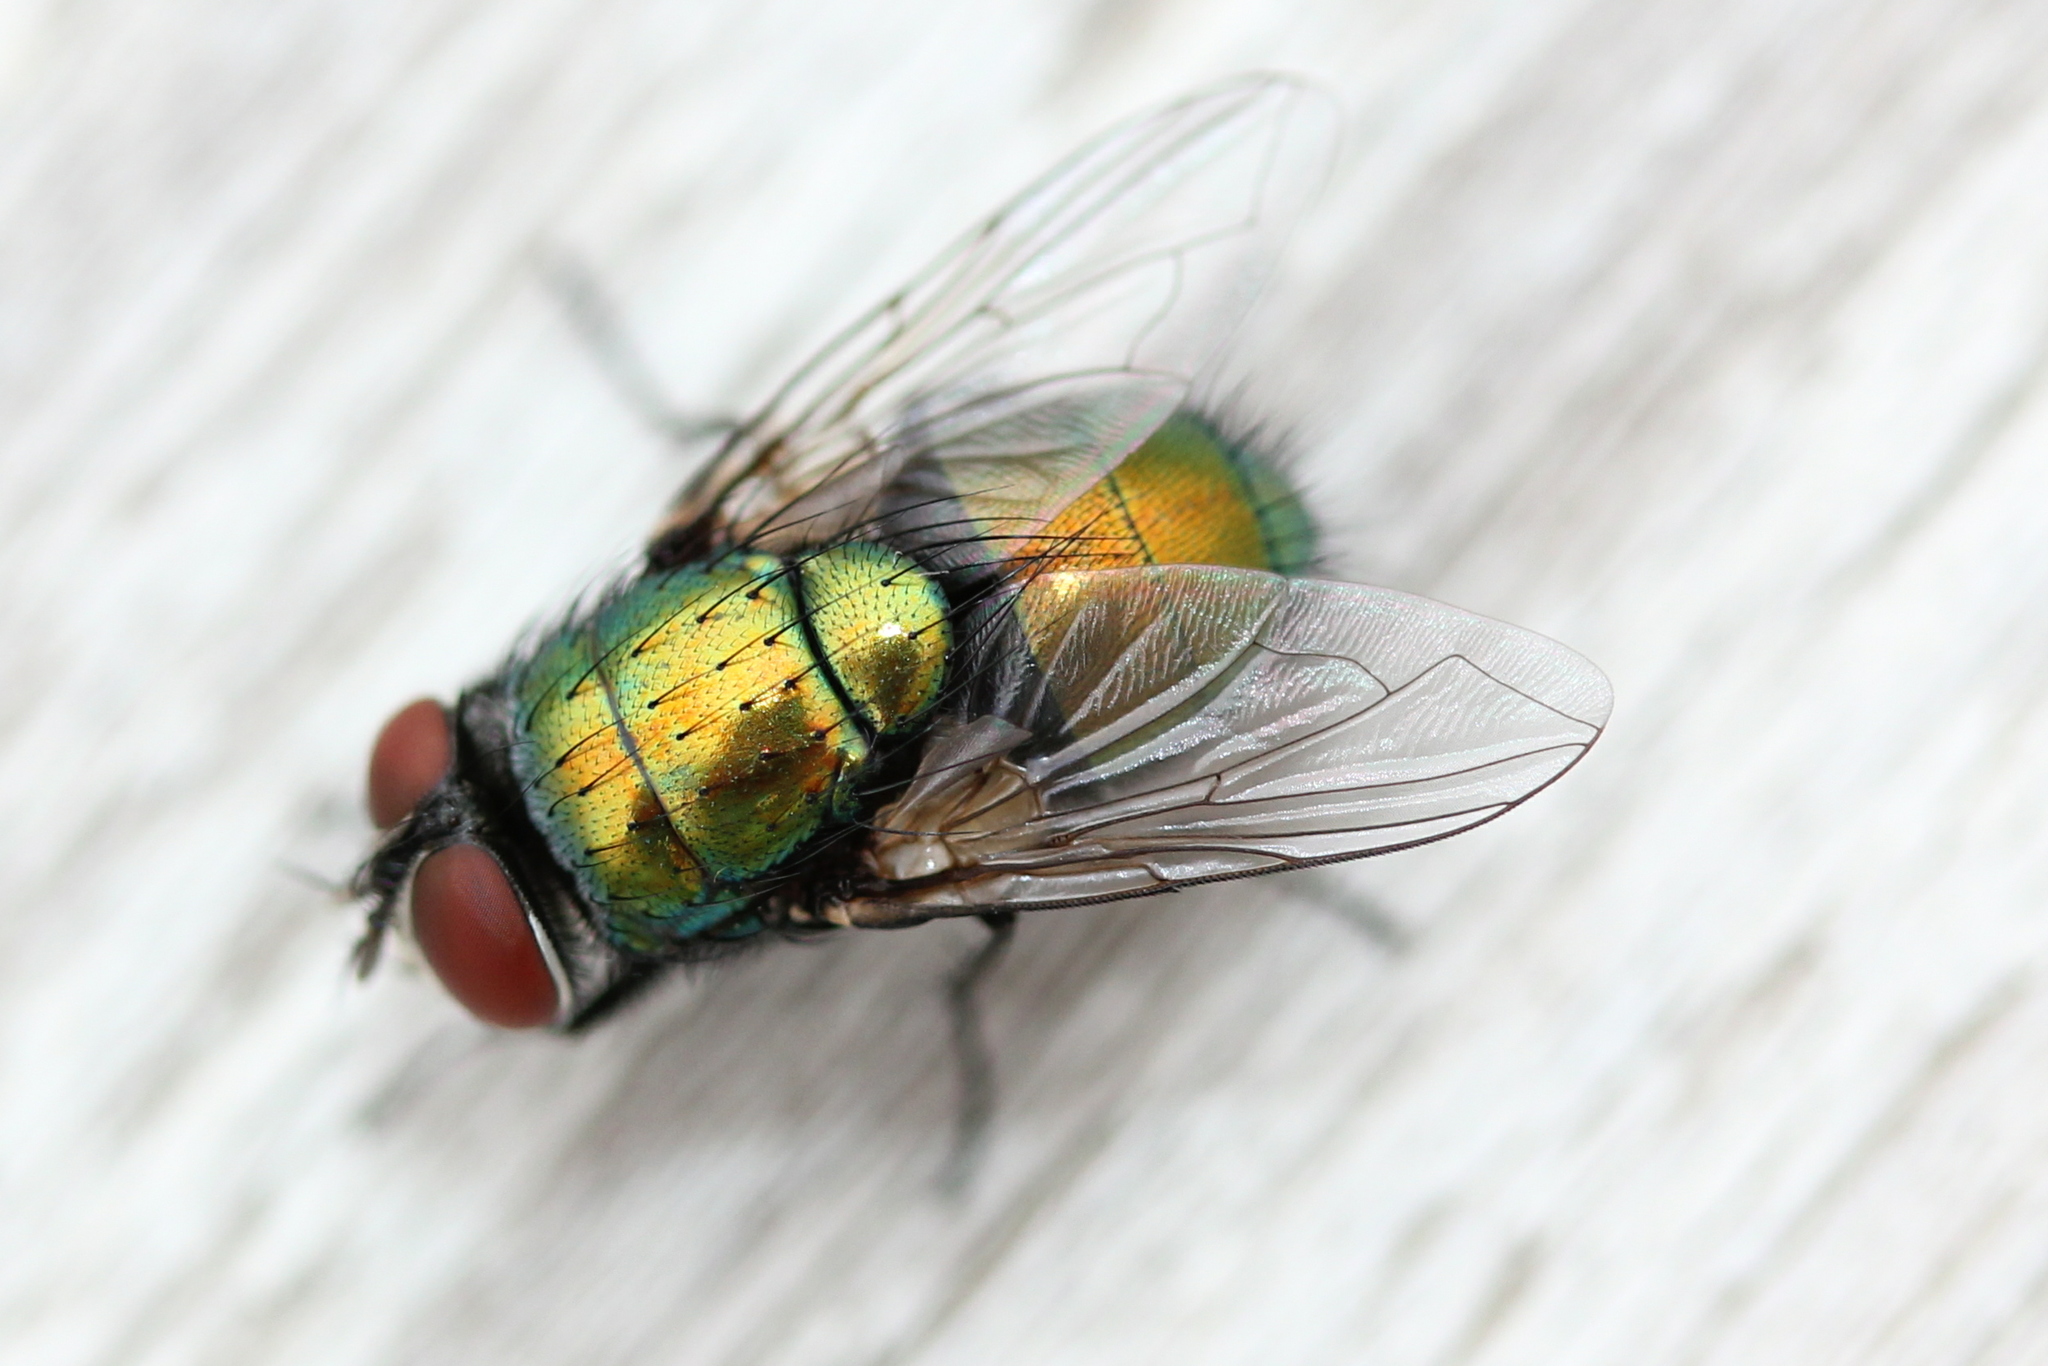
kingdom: Animalia
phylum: Arthropoda
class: Insecta
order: Diptera
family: Calliphoridae
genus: Lucilia
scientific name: Lucilia sericata
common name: Blow fly
